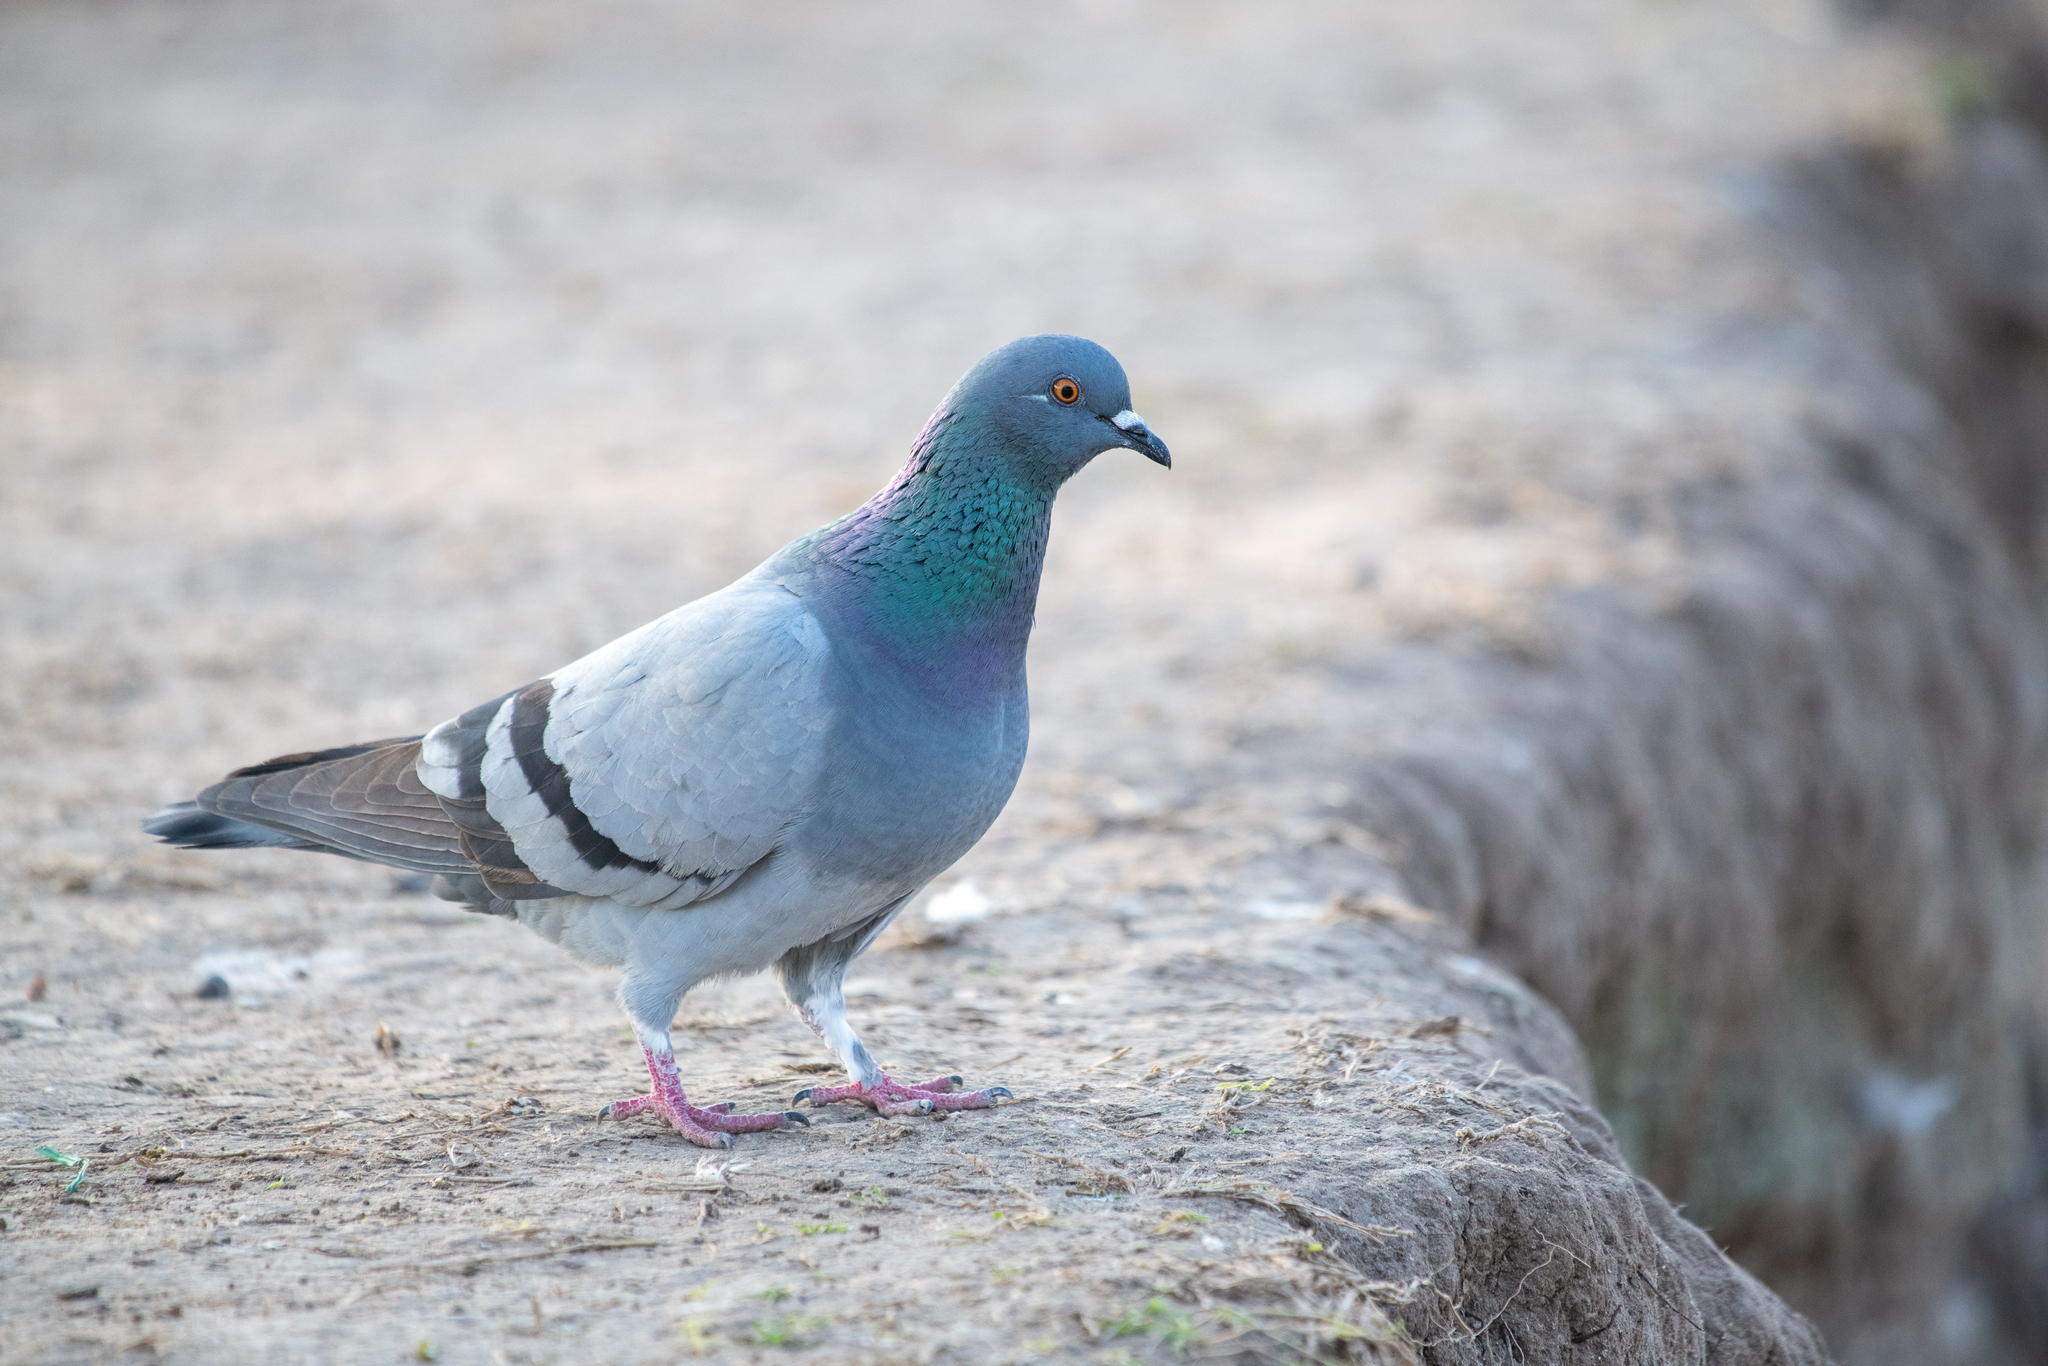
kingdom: Animalia
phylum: Chordata
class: Aves
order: Columbiformes
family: Columbidae
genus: Columba
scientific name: Columba livia
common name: Rock pigeon
